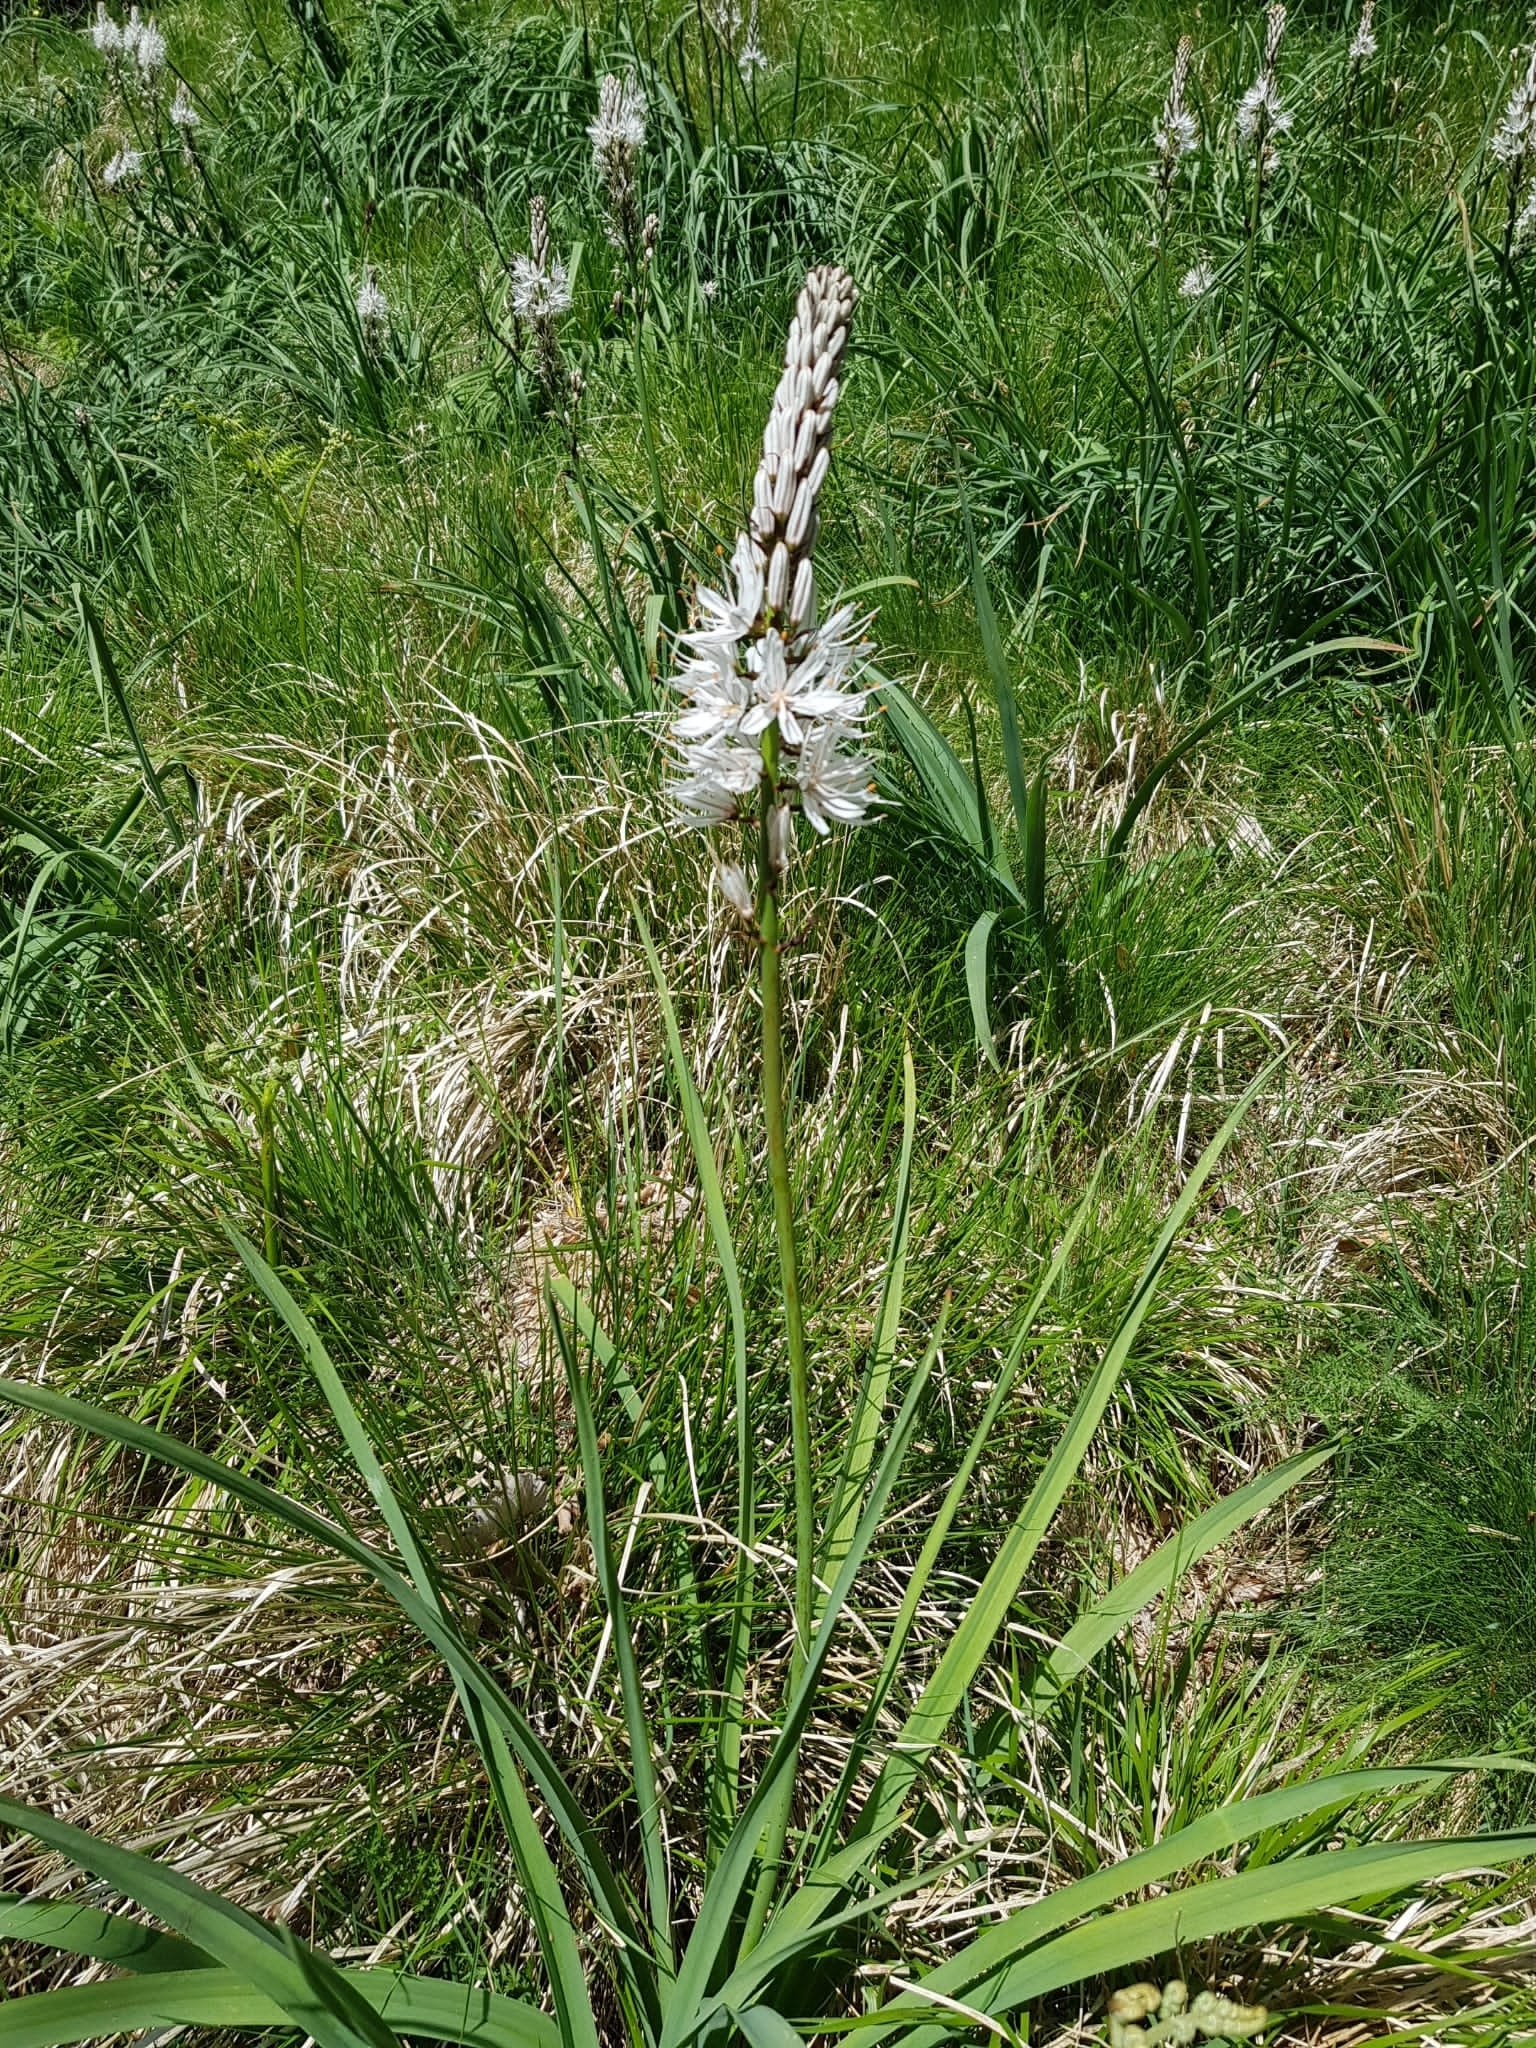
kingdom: Plantae
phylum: Tracheophyta
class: Liliopsida
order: Asparagales
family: Asphodelaceae
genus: Asphodelus
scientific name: Asphodelus macrocarpus
